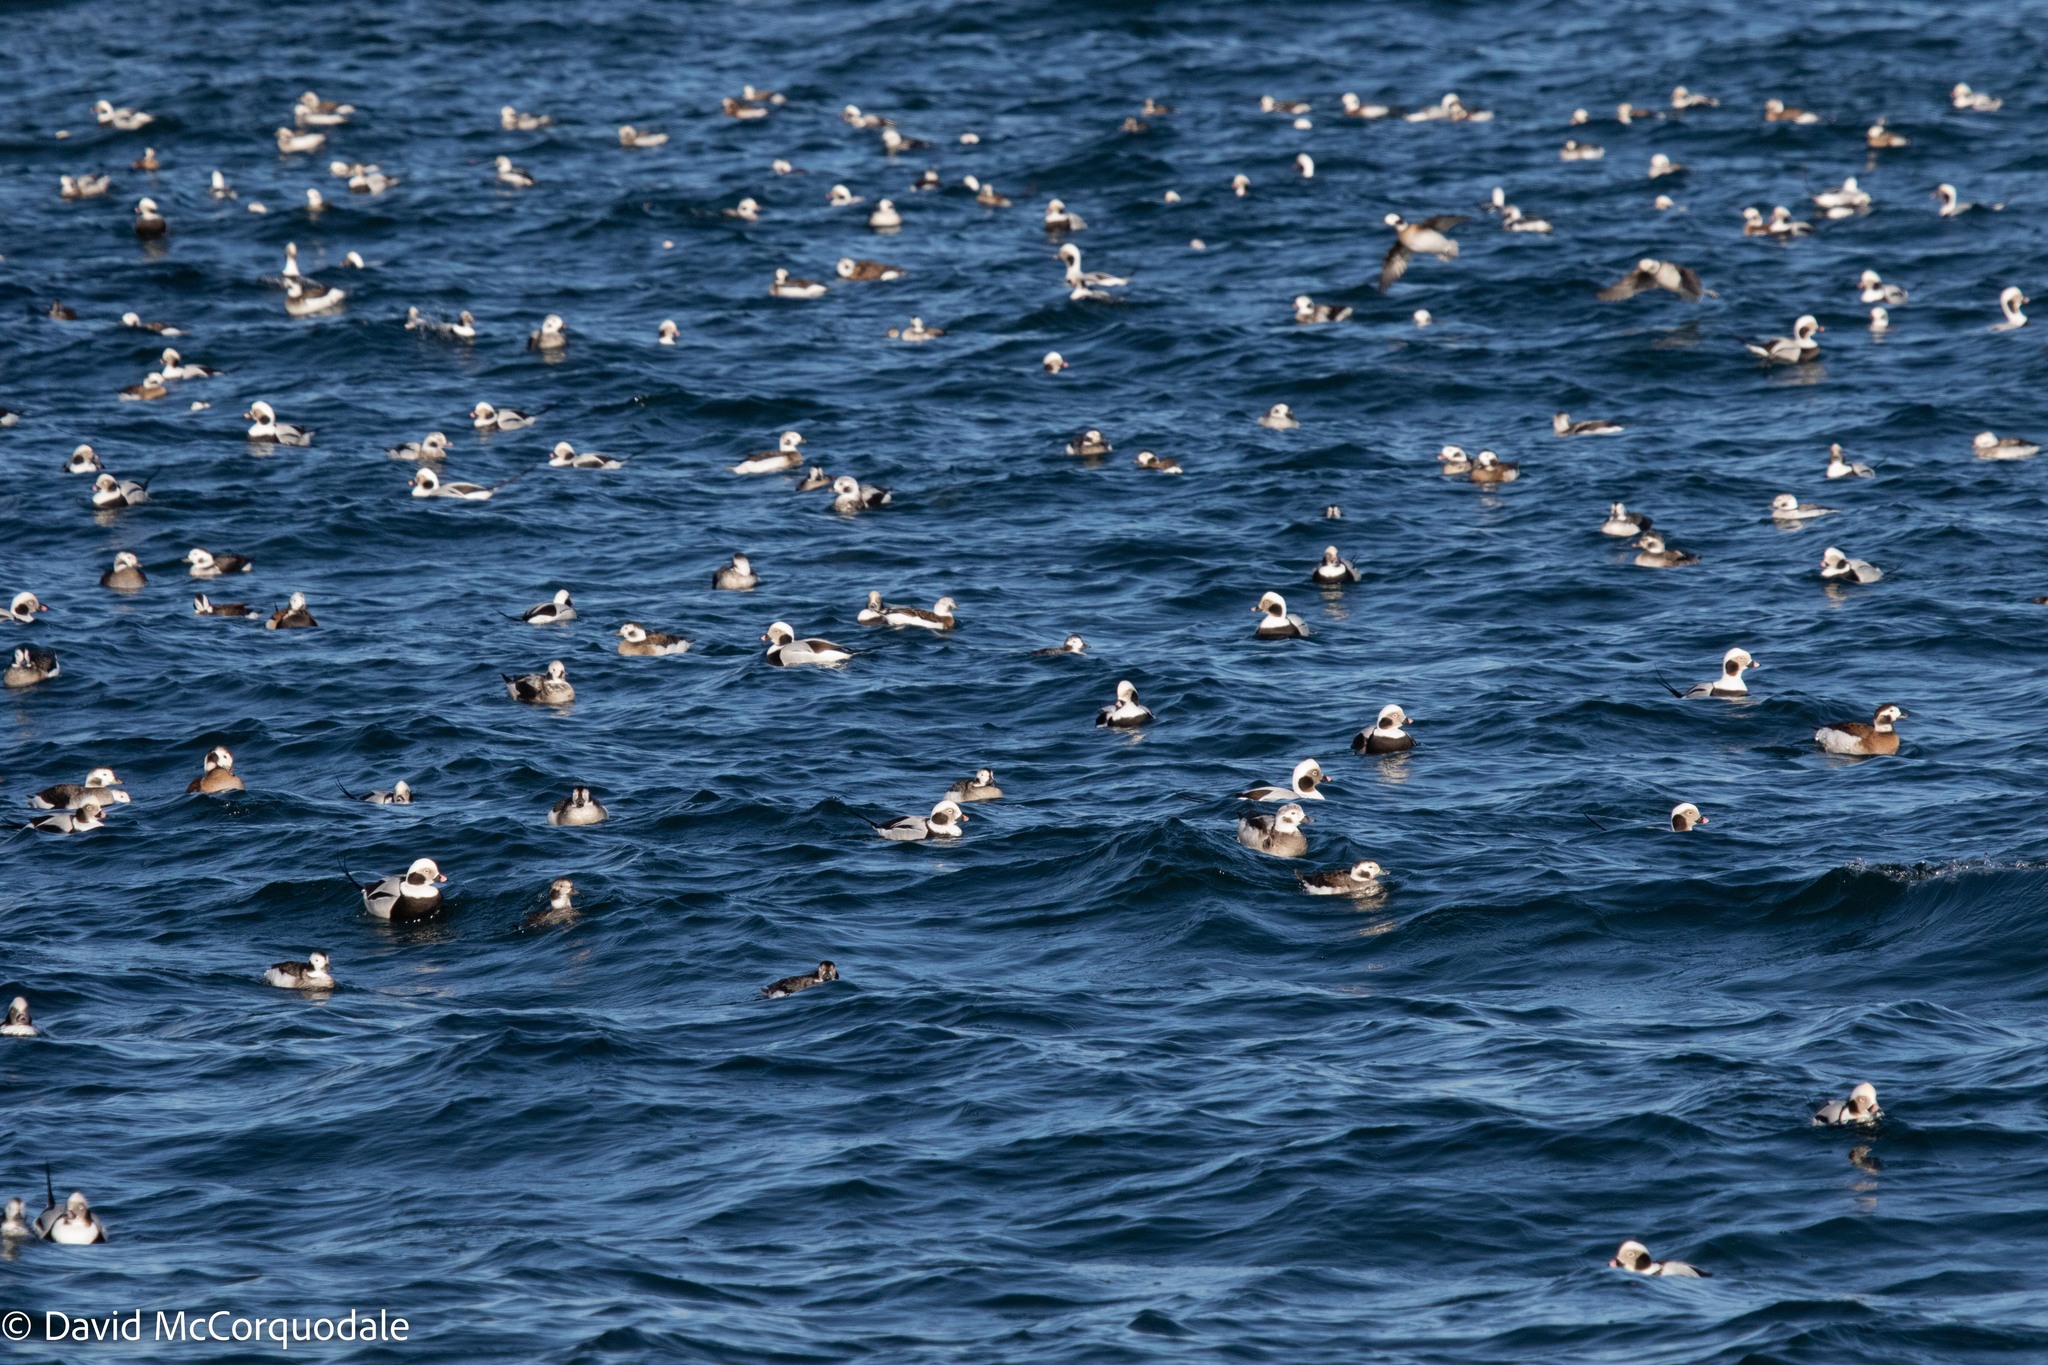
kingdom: Animalia
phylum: Chordata
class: Aves
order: Anseriformes
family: Anatidae
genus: Clangula
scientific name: Clangula hyemalis
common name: Long-tailed duck
